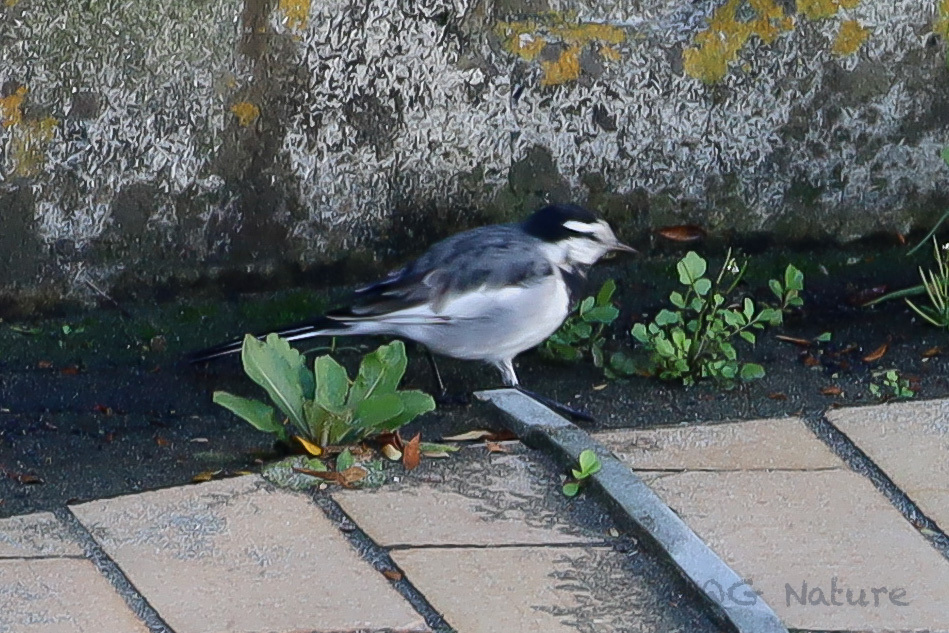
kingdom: Animalia
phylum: Chordata
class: Aves
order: Passeriformes
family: Motacillidae
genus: Motacilla
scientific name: Motacilla alba
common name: White wagtail
